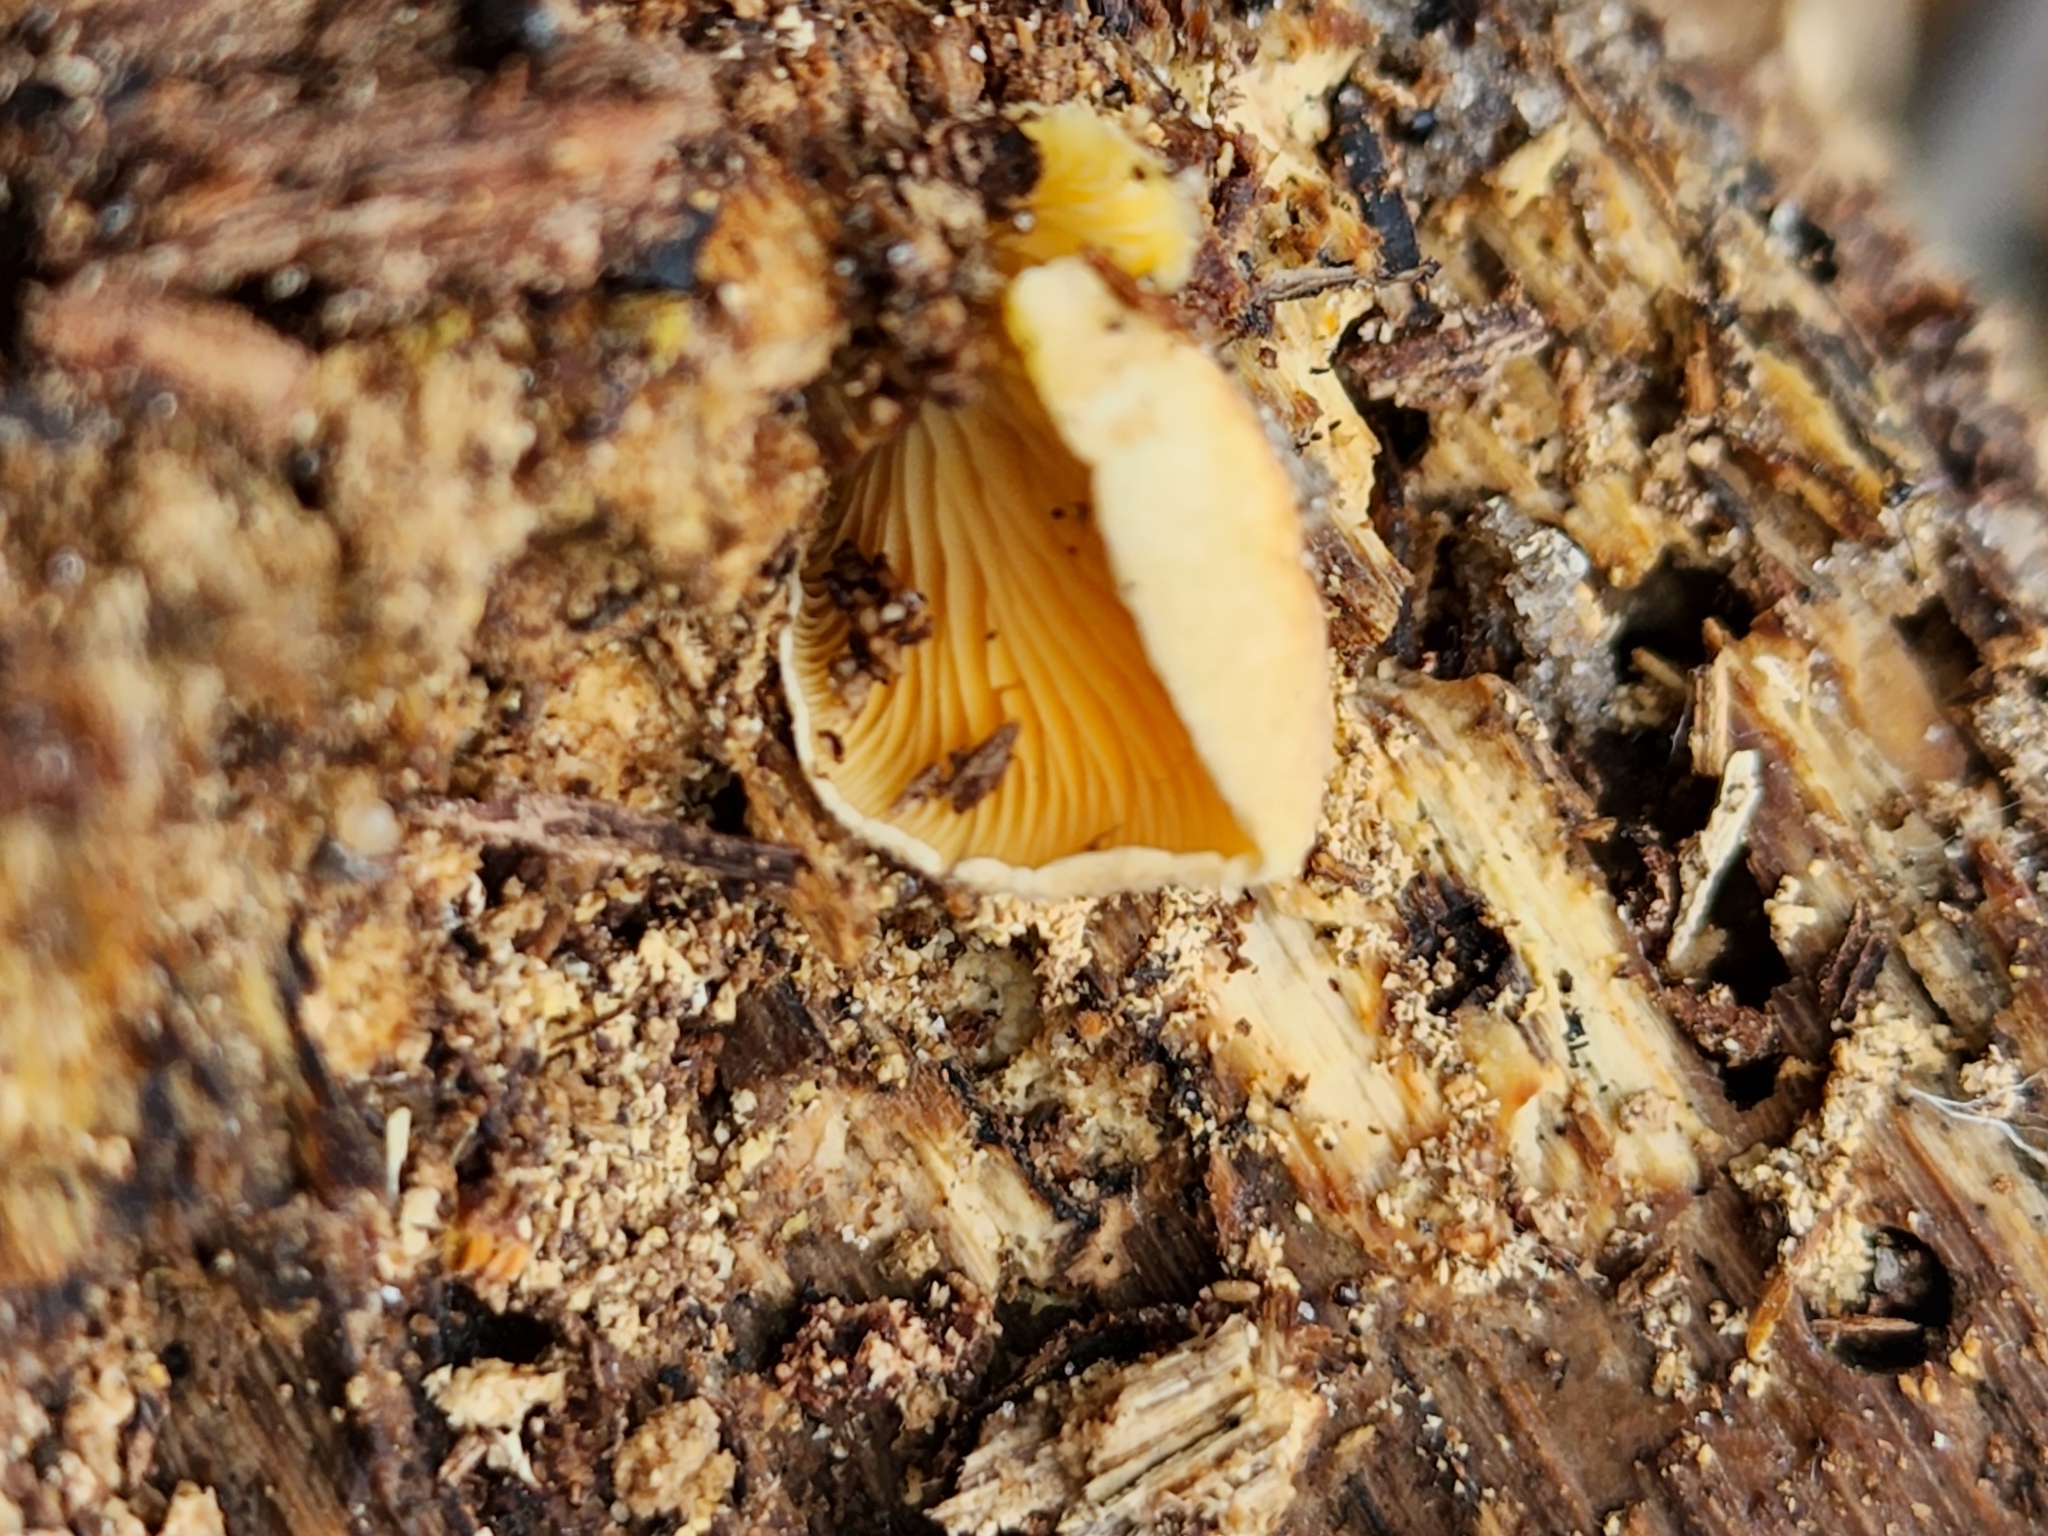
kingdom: Fungi
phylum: Basidiomycota
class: Agaricomycetes
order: Agaricales
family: Crepidotaceae
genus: Crepidotus
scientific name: Crepidotus crocophyllus
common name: Saffron oysterling
